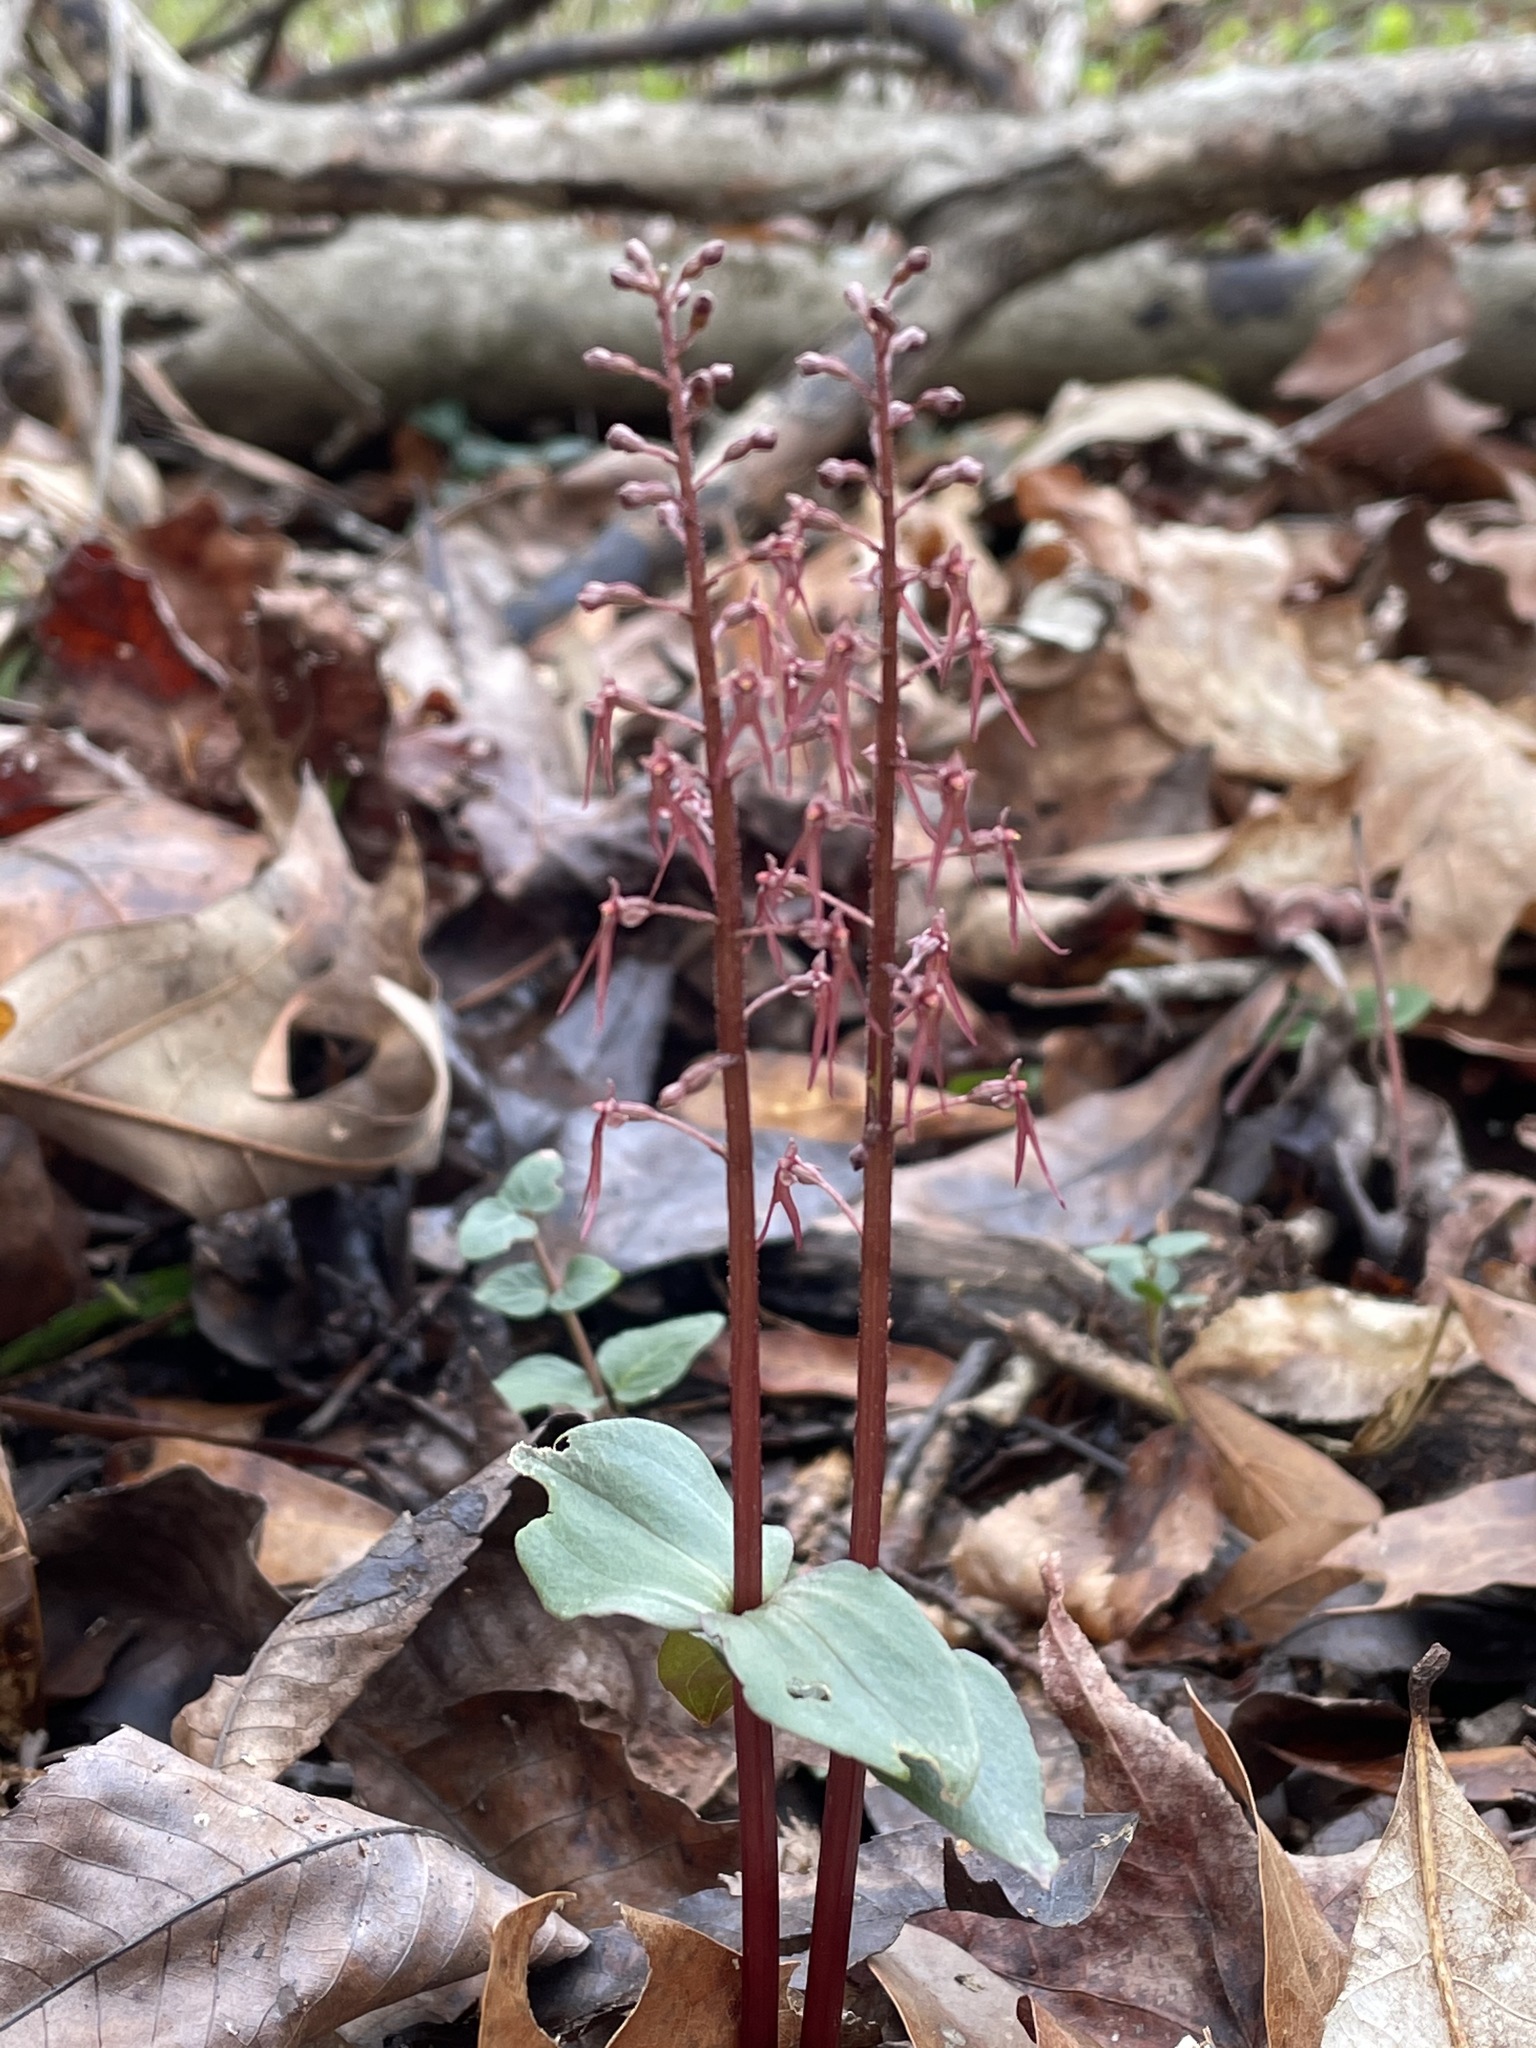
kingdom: Plantae
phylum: Tracheophyta
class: Liliopsida
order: Asparagales
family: Orchidaceae
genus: Neottia
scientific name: Neottia bifolia
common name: Southern twayblade
